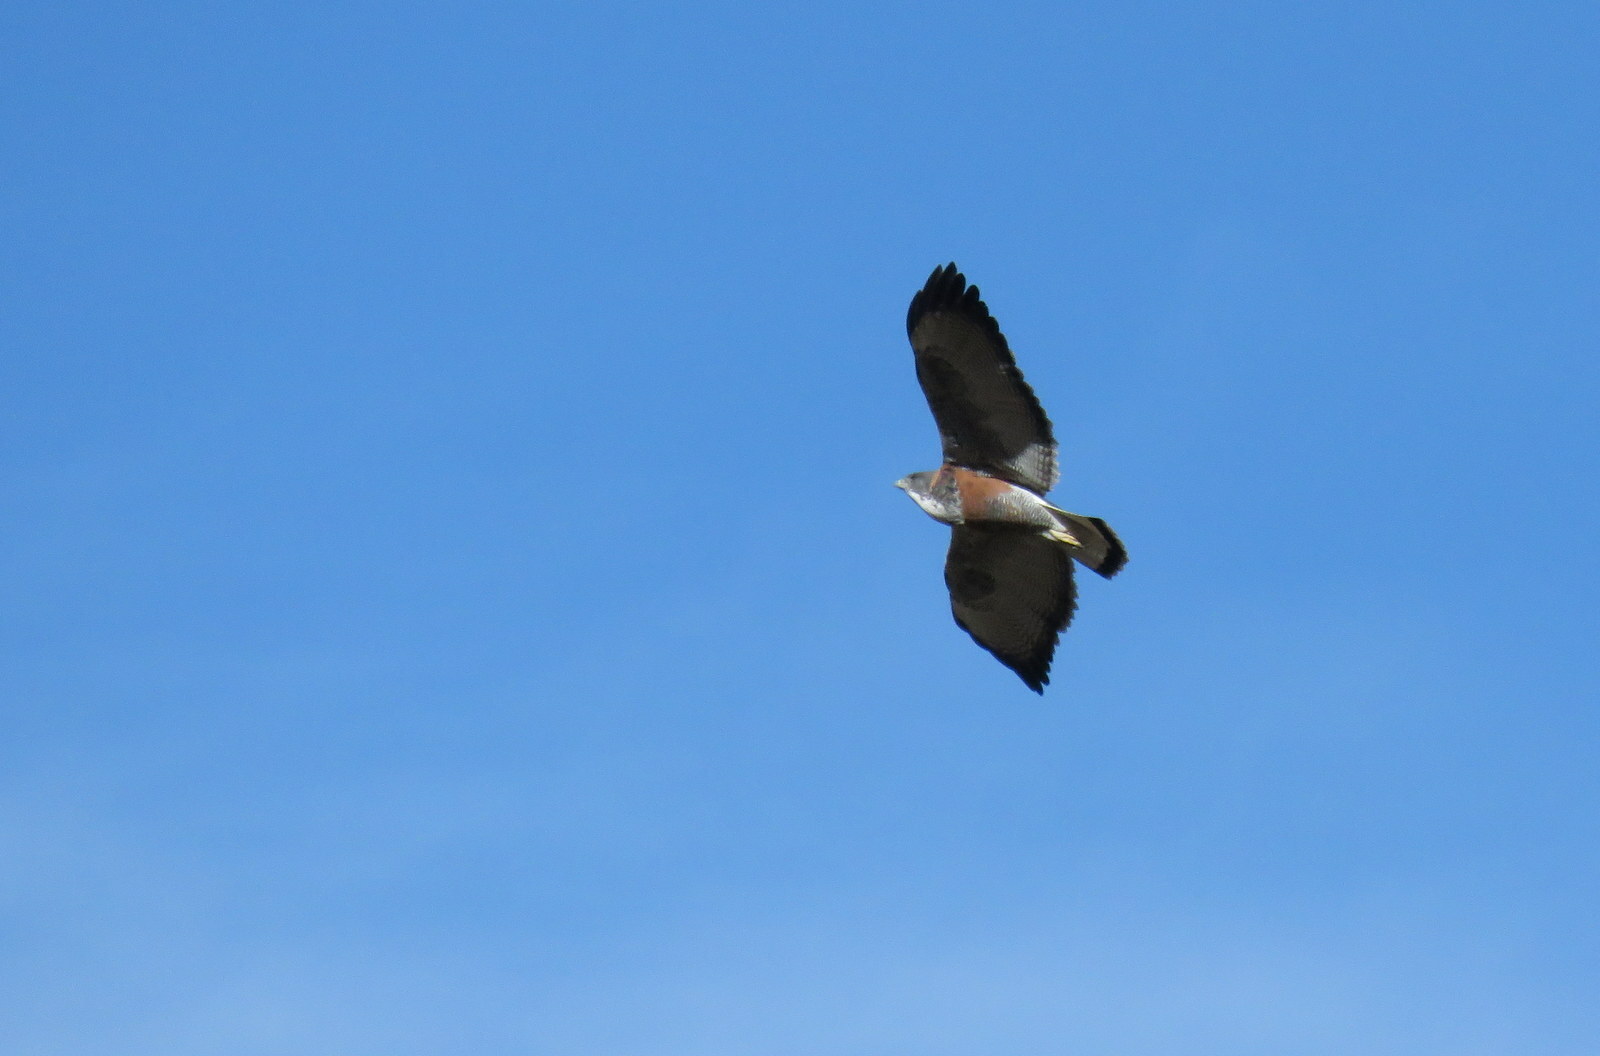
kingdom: Animalia
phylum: Chordata
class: Aves
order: Accipitriformes
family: Accipitridae
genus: Buteo
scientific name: Buteo polyosoma
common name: Variable hawk
